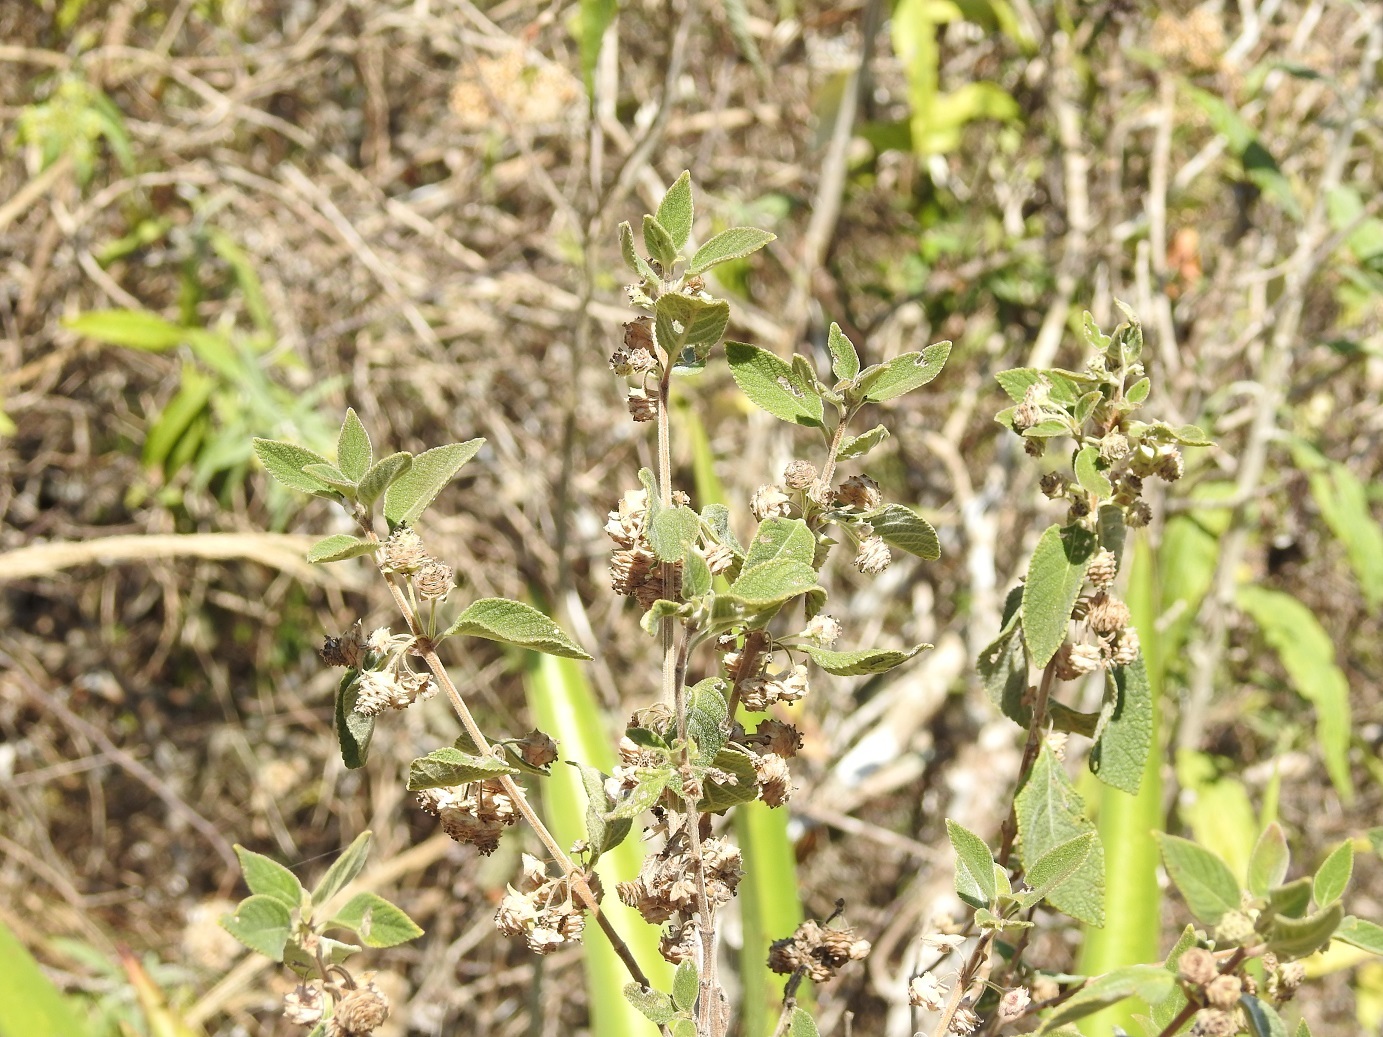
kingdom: Plantae
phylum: Tracheophyta
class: Magnoliopsida
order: Lamiales
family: Verbenaceae
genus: Lippia
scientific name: Lippia myriocephala
